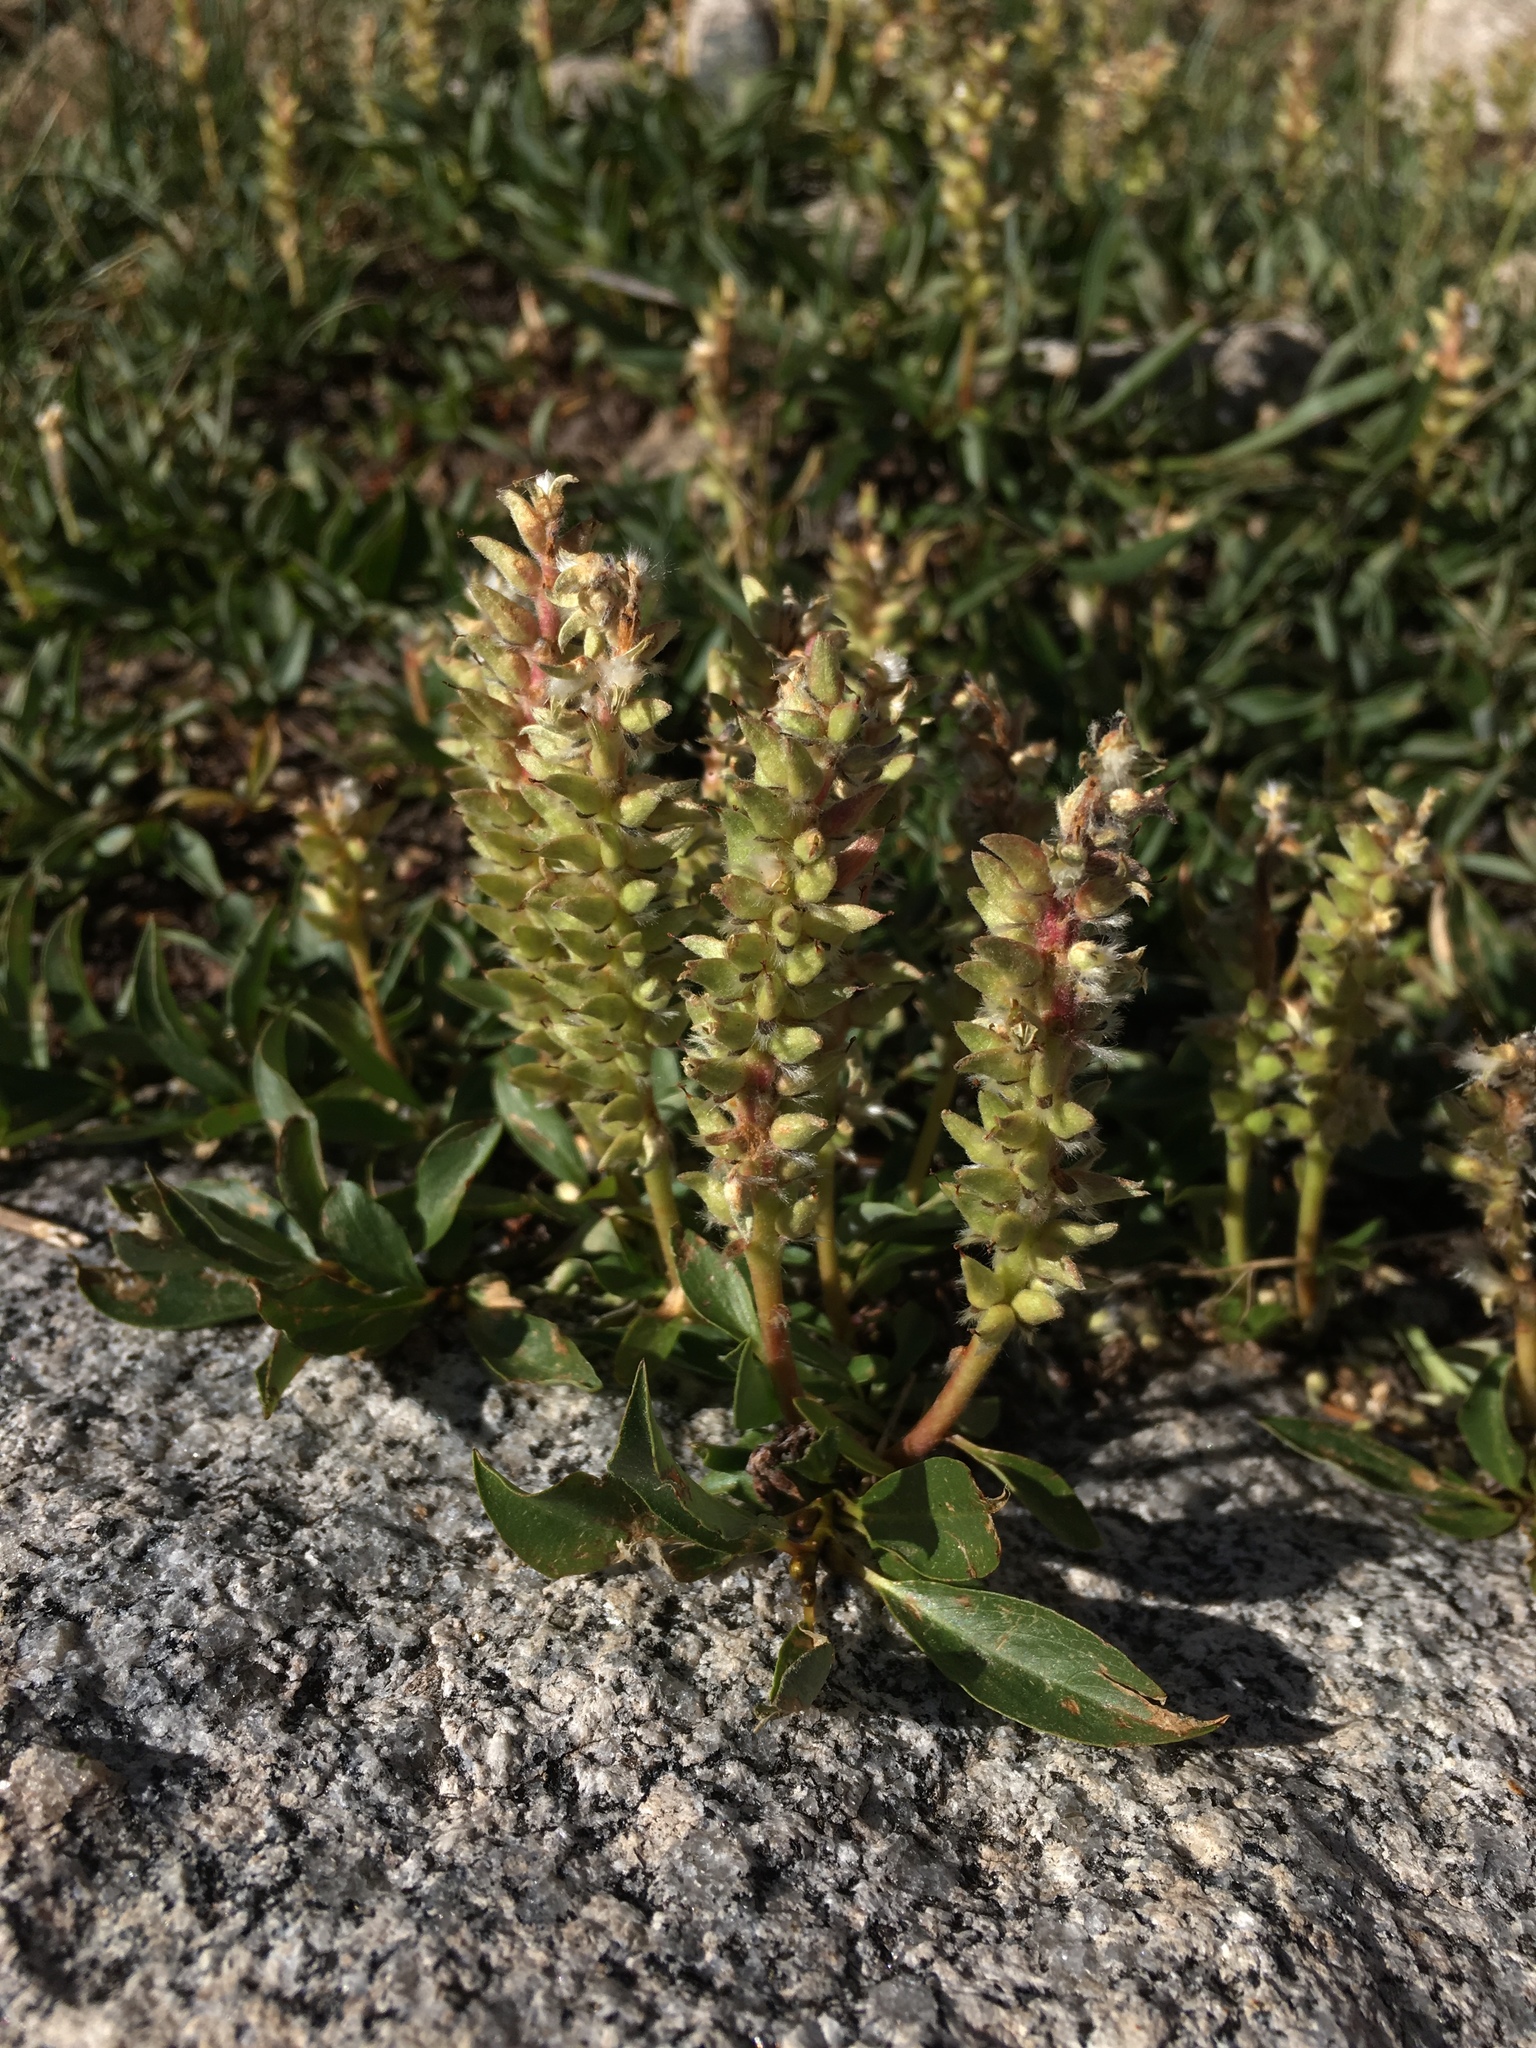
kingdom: Plantae
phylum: Tracheophyta
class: Magnoliopsida
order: Malpighiales
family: Salicaceae
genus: Salix
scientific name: Salix petrophila
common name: Rocky mountain willow
